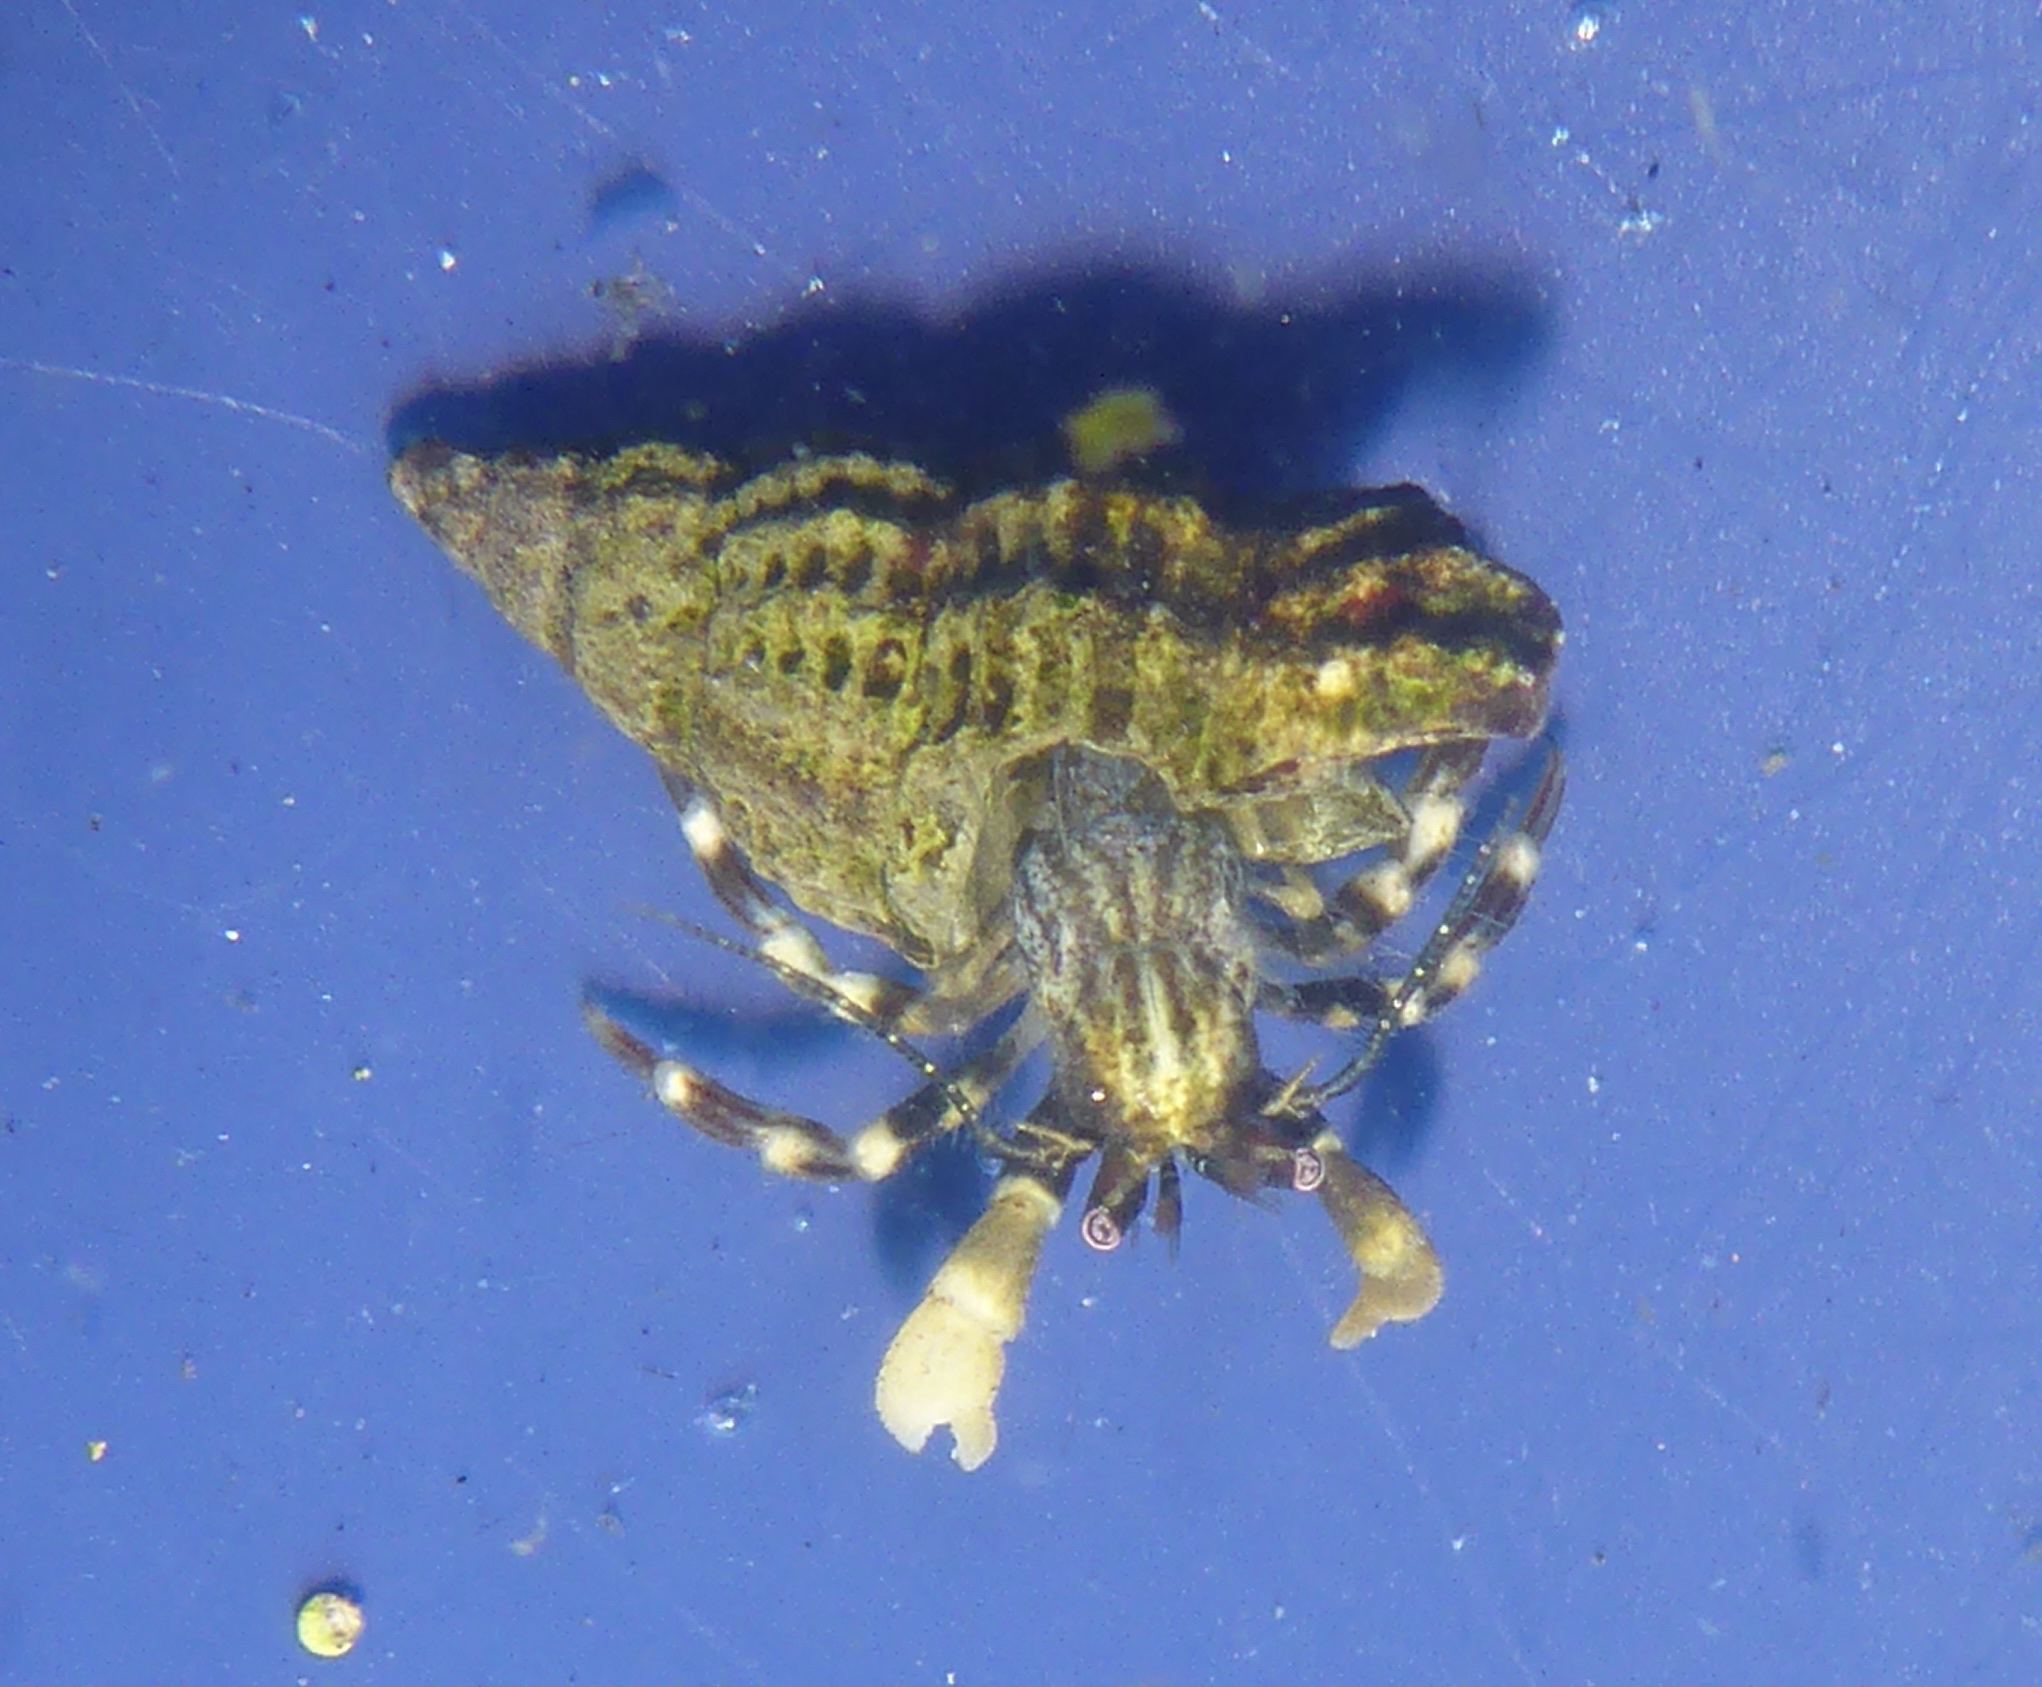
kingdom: Animalia
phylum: Arthropoda
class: Malacostraca
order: Decapoda
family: Paguridae
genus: Pagurus
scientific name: Pagurus venturensis
